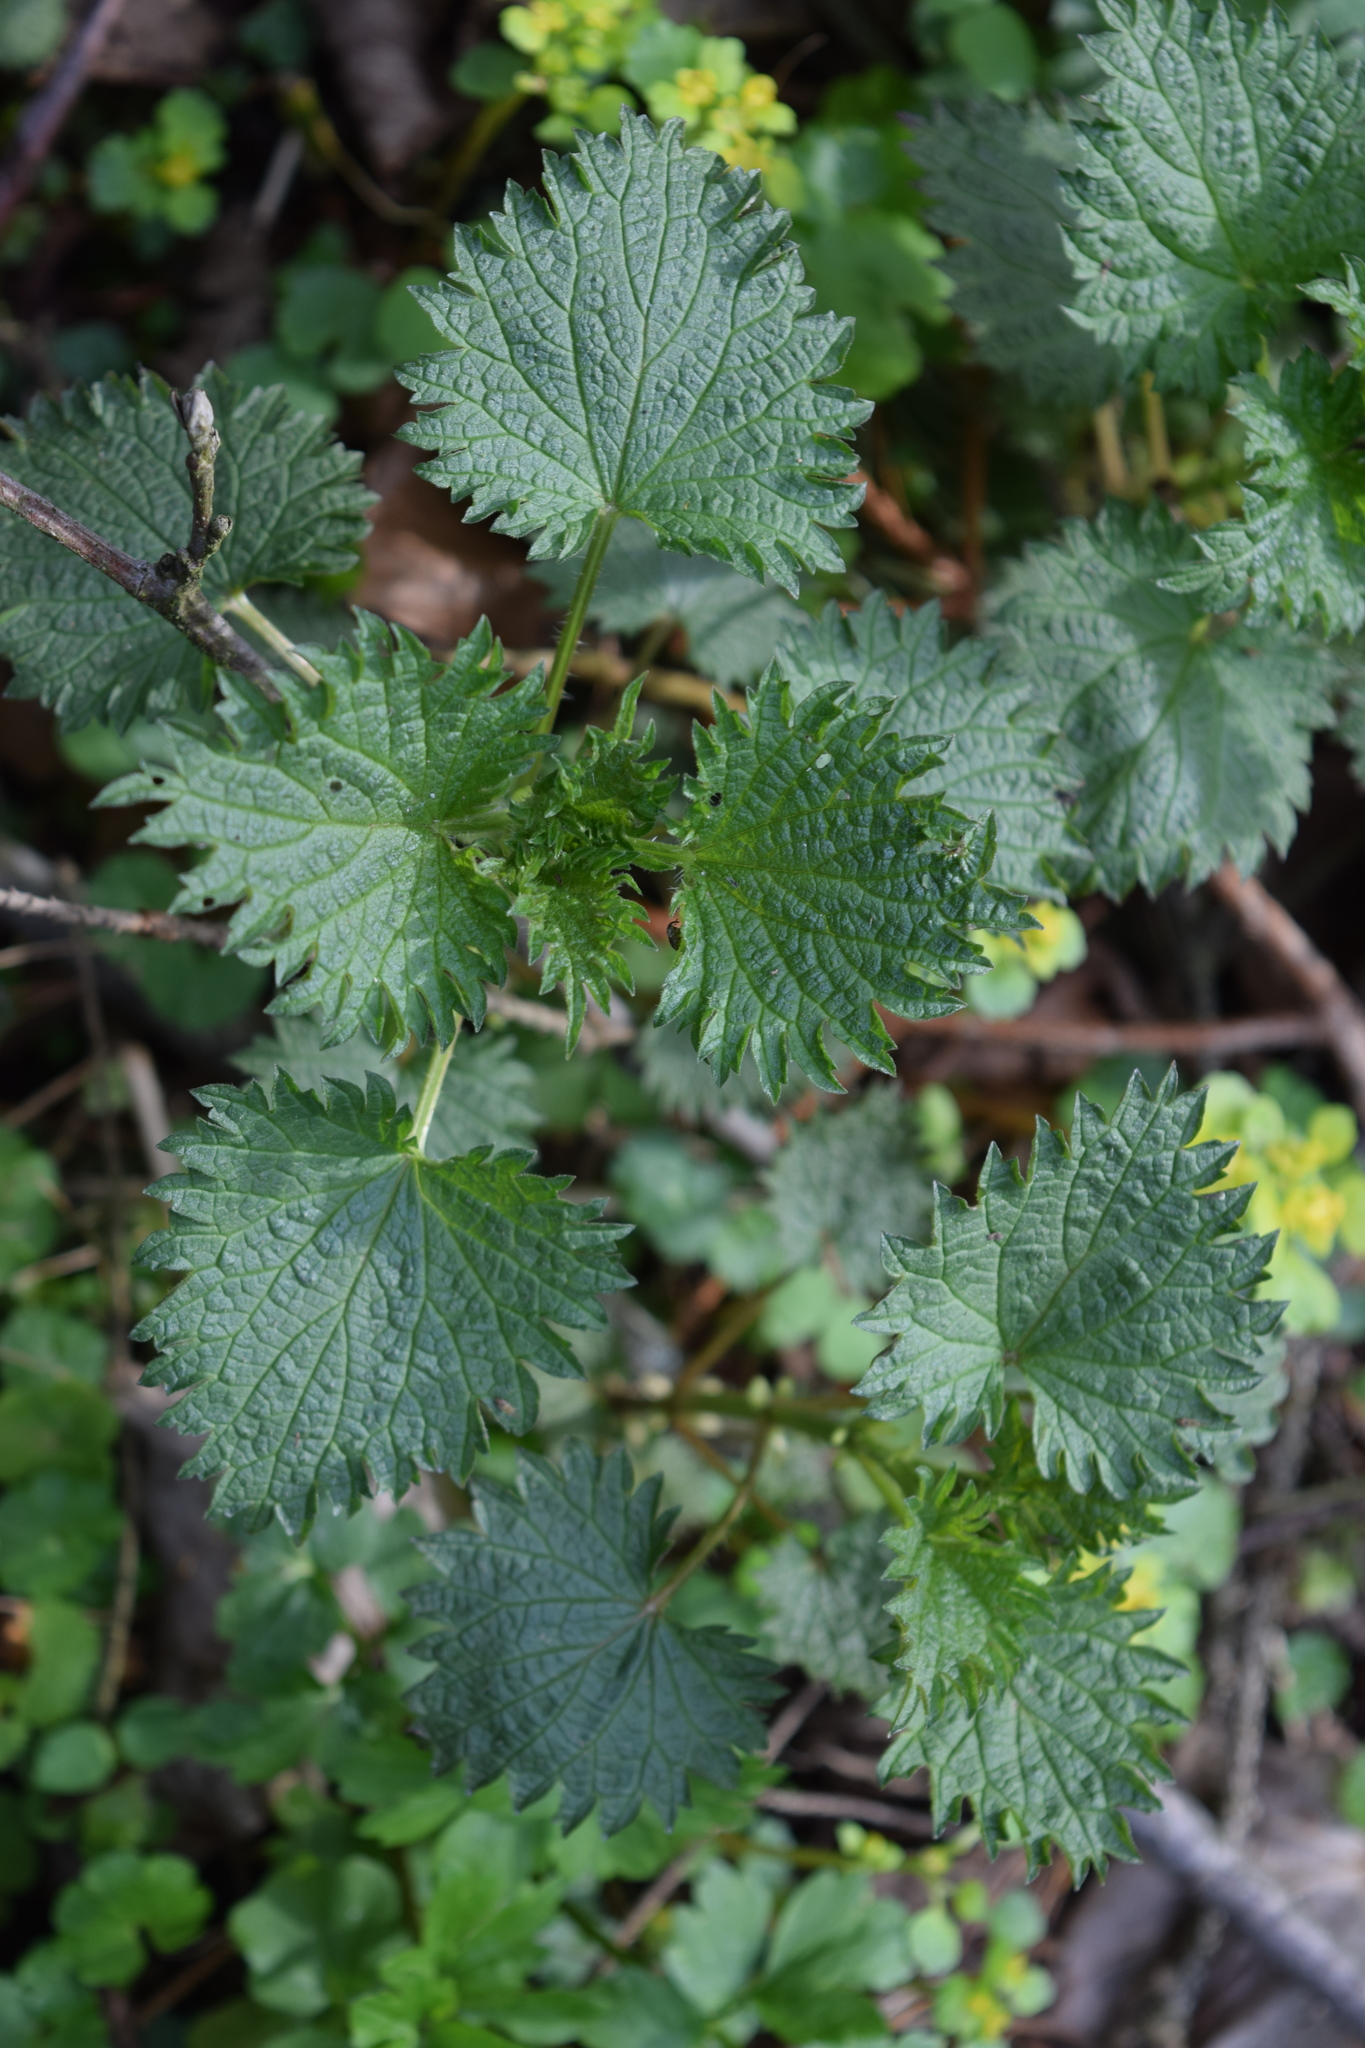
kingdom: Plantae
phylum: Tracheophyta
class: Magnoliopsida
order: Rosales
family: Urticaceae
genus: Urtica
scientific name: Urtica dioica
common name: Common nettle
